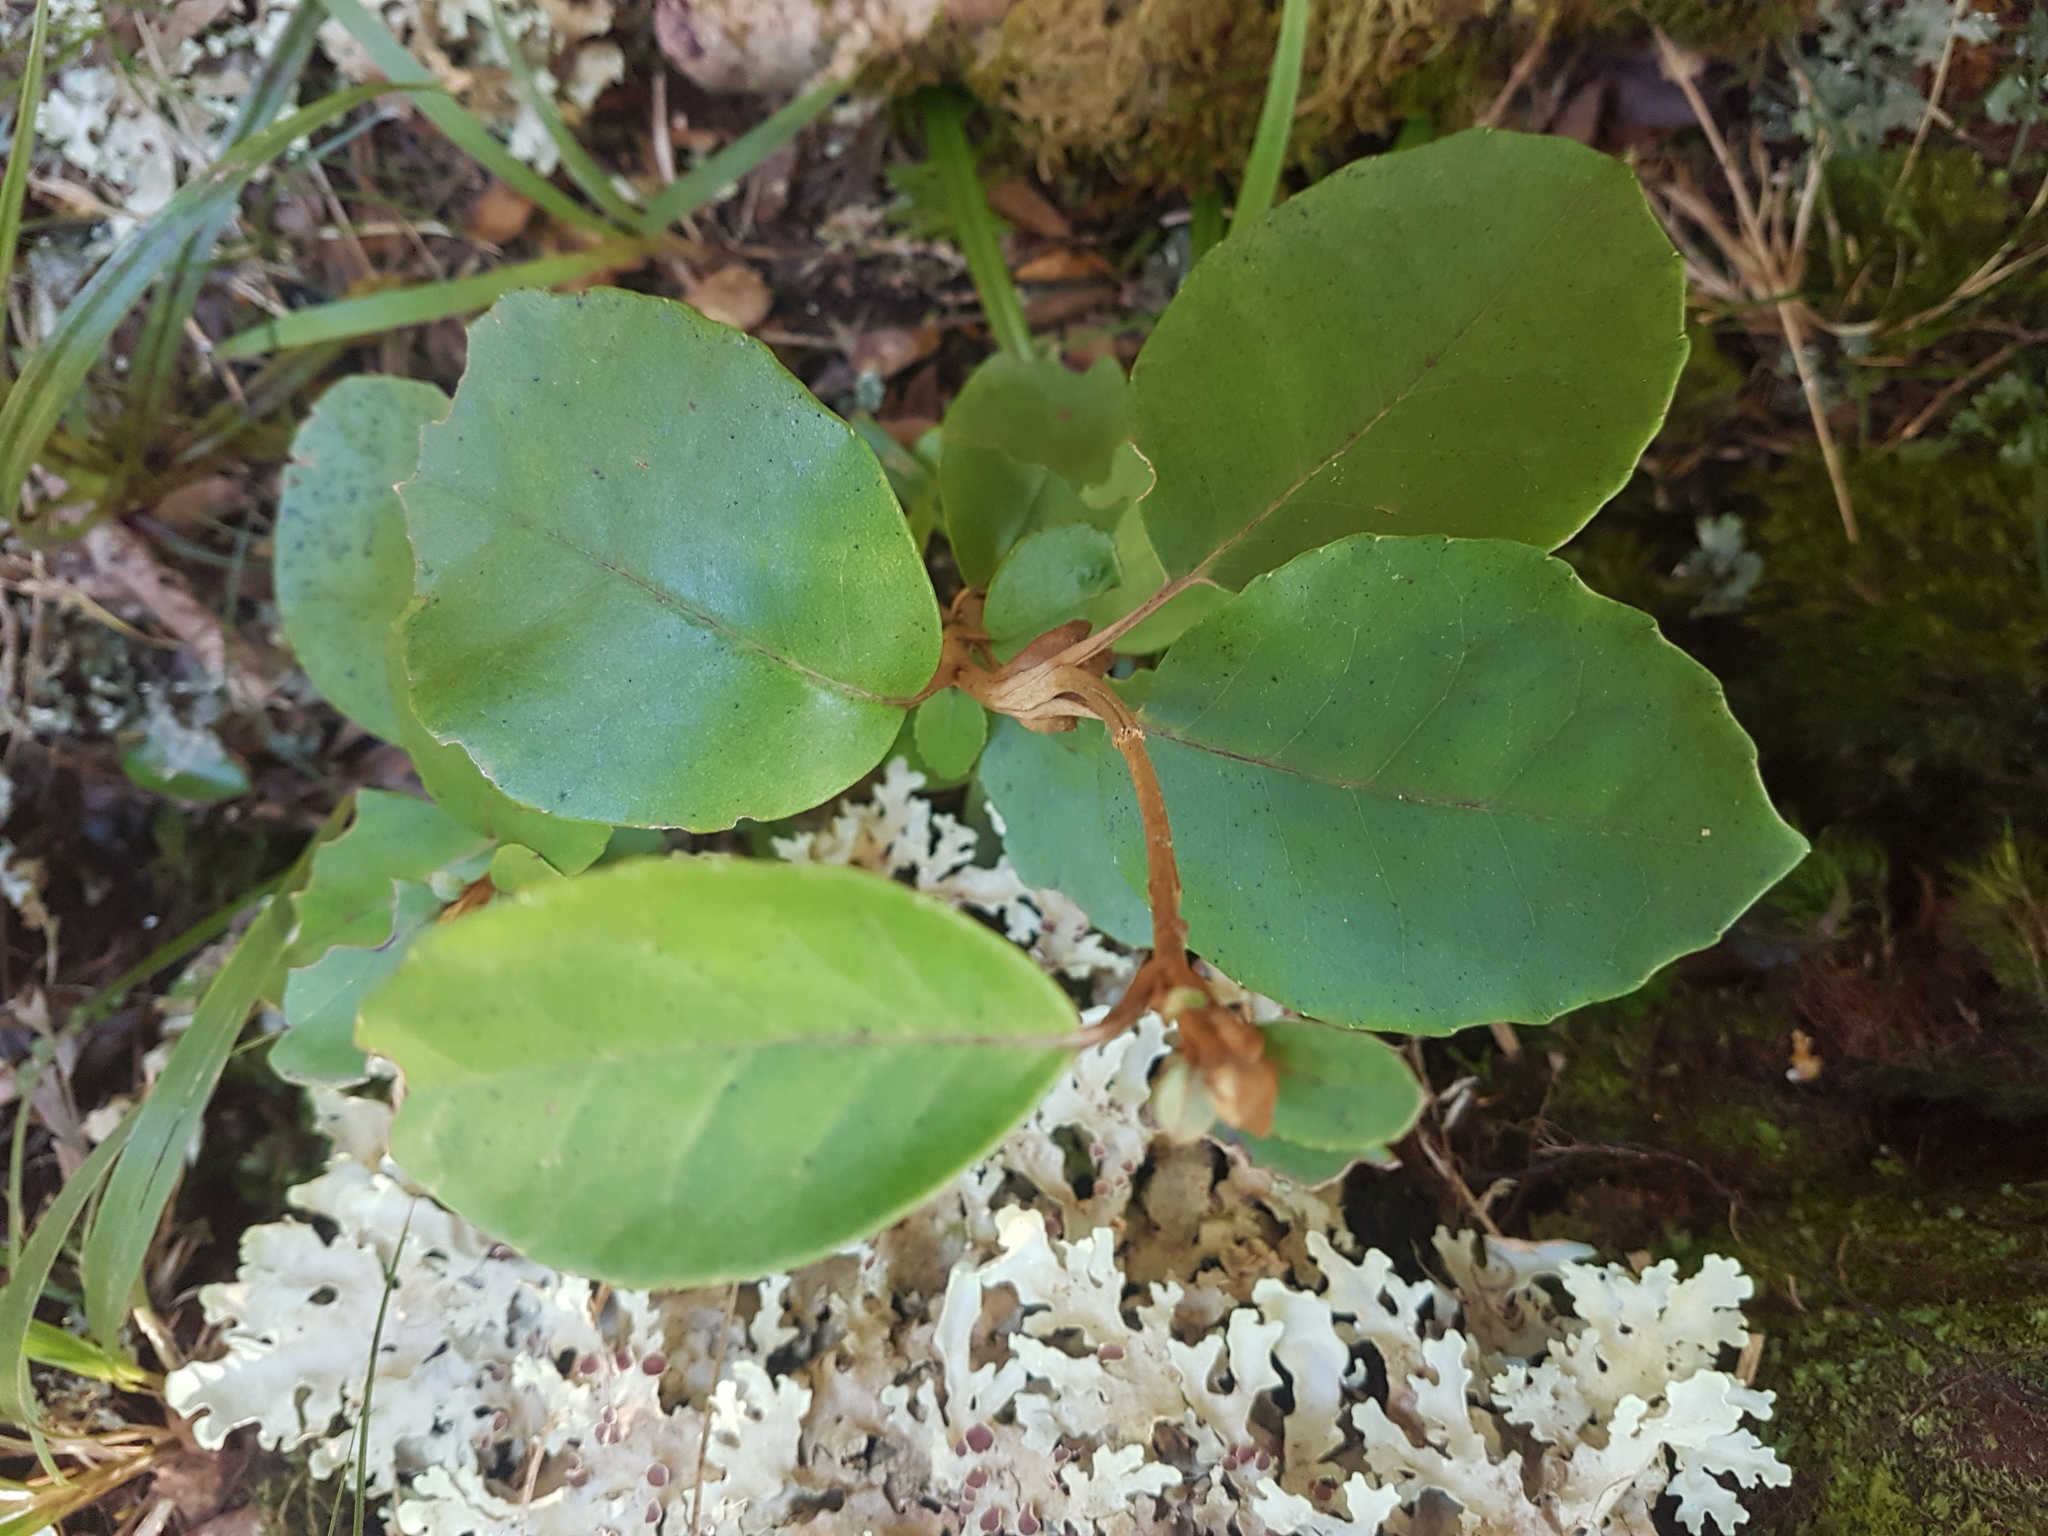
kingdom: Plantae
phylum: Tracheophyta
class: Magnoliopsida
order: Asterales
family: Asteraceae
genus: Olearia
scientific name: Olearia arborescens
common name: Glossy tree daisy
